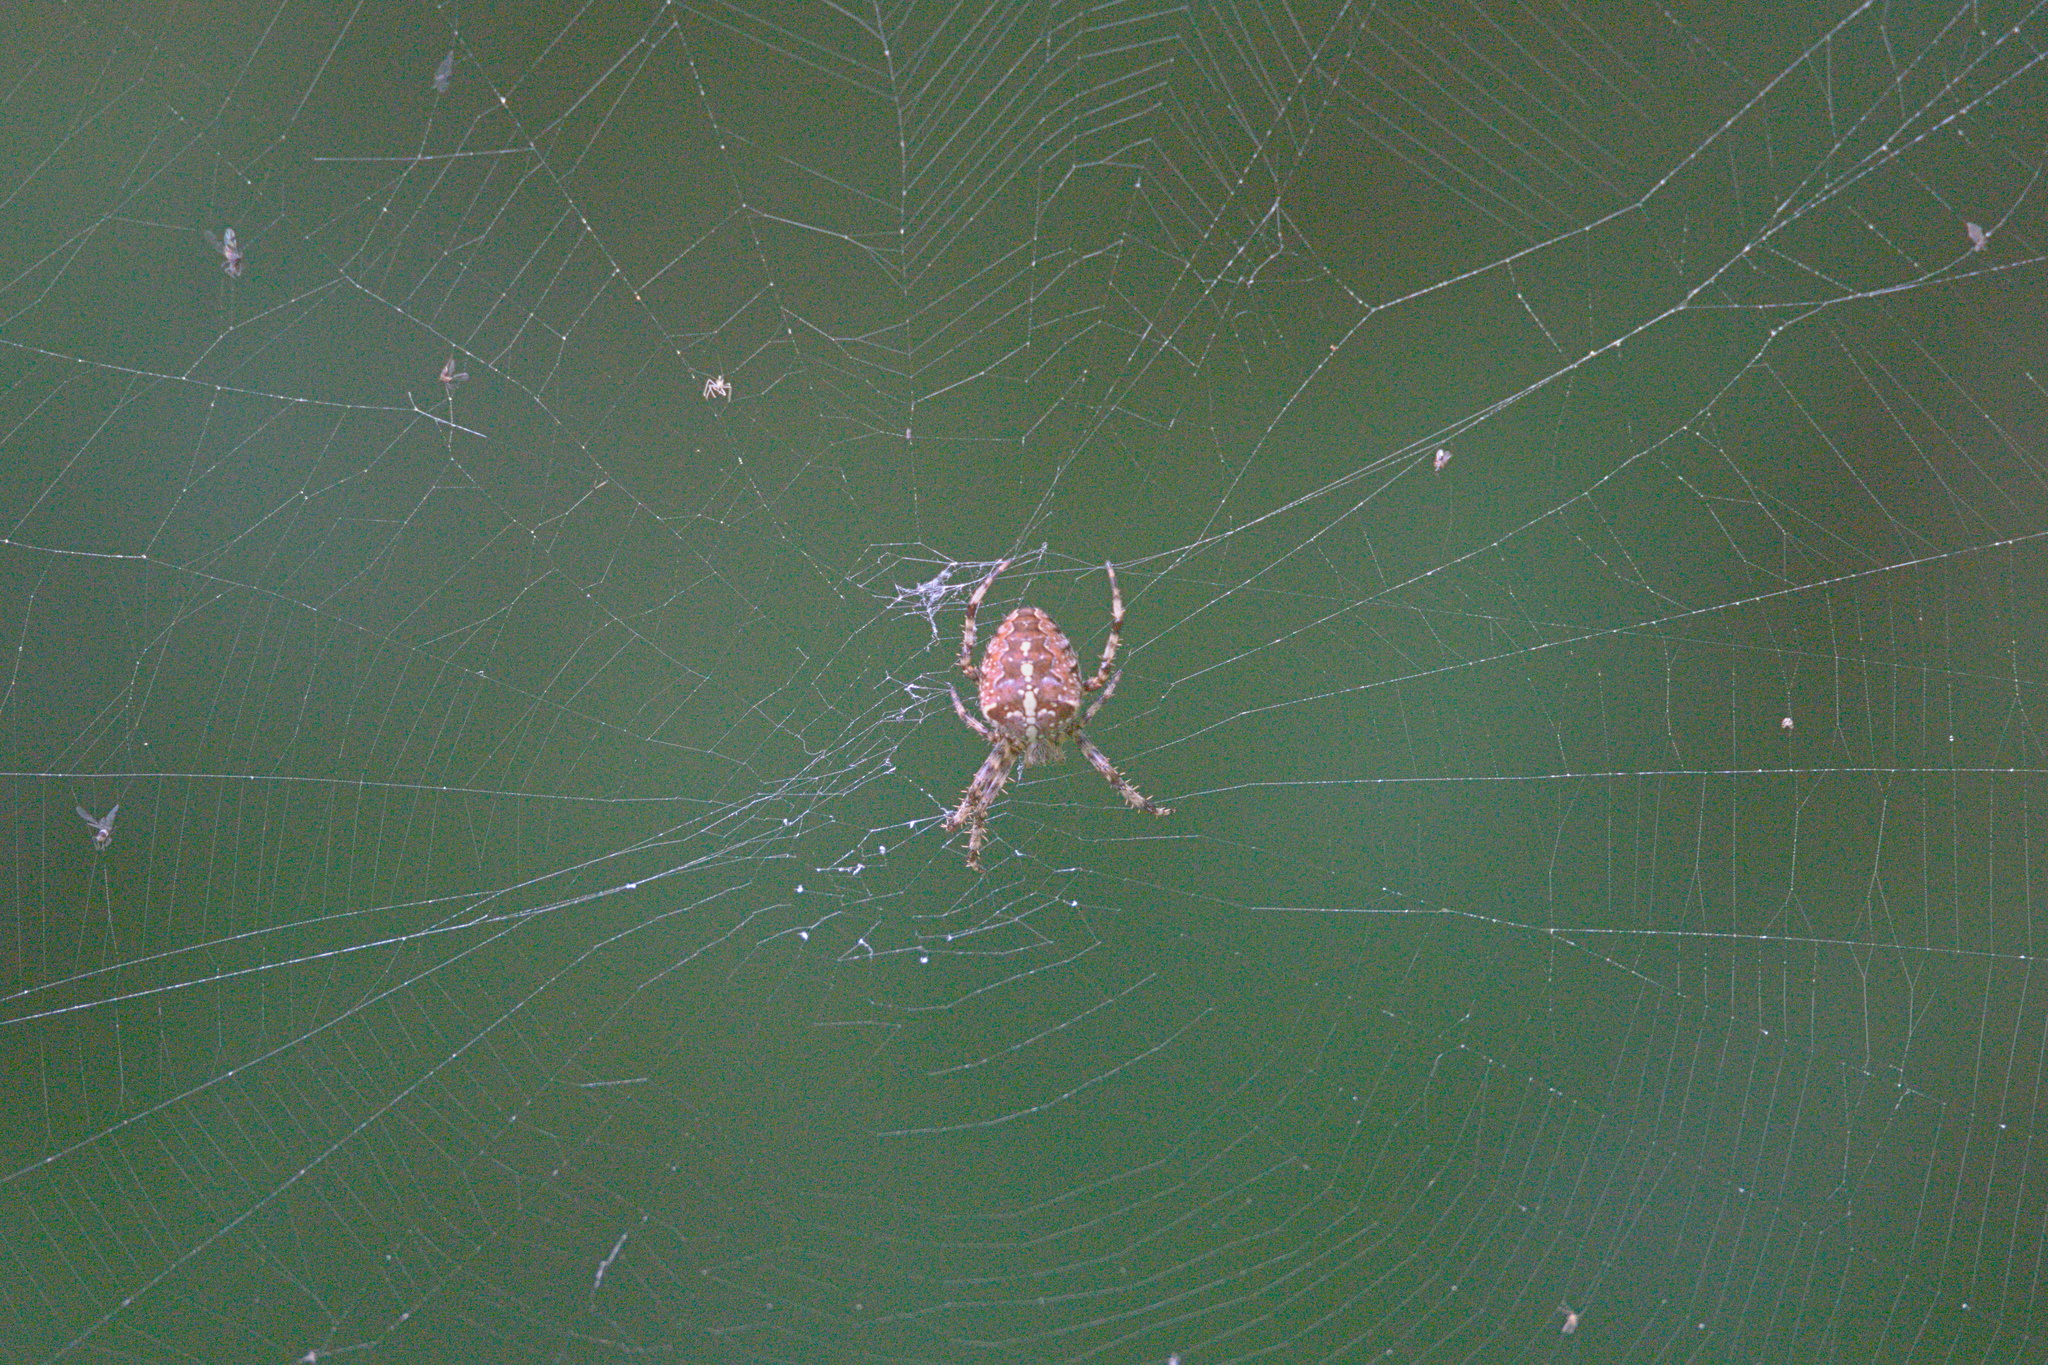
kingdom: Animalia
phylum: Arthropoda
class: Arachnida
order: Araneae
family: Araneidae
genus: Araneus
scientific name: Araneus diadematus
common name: Cross orbweaver
